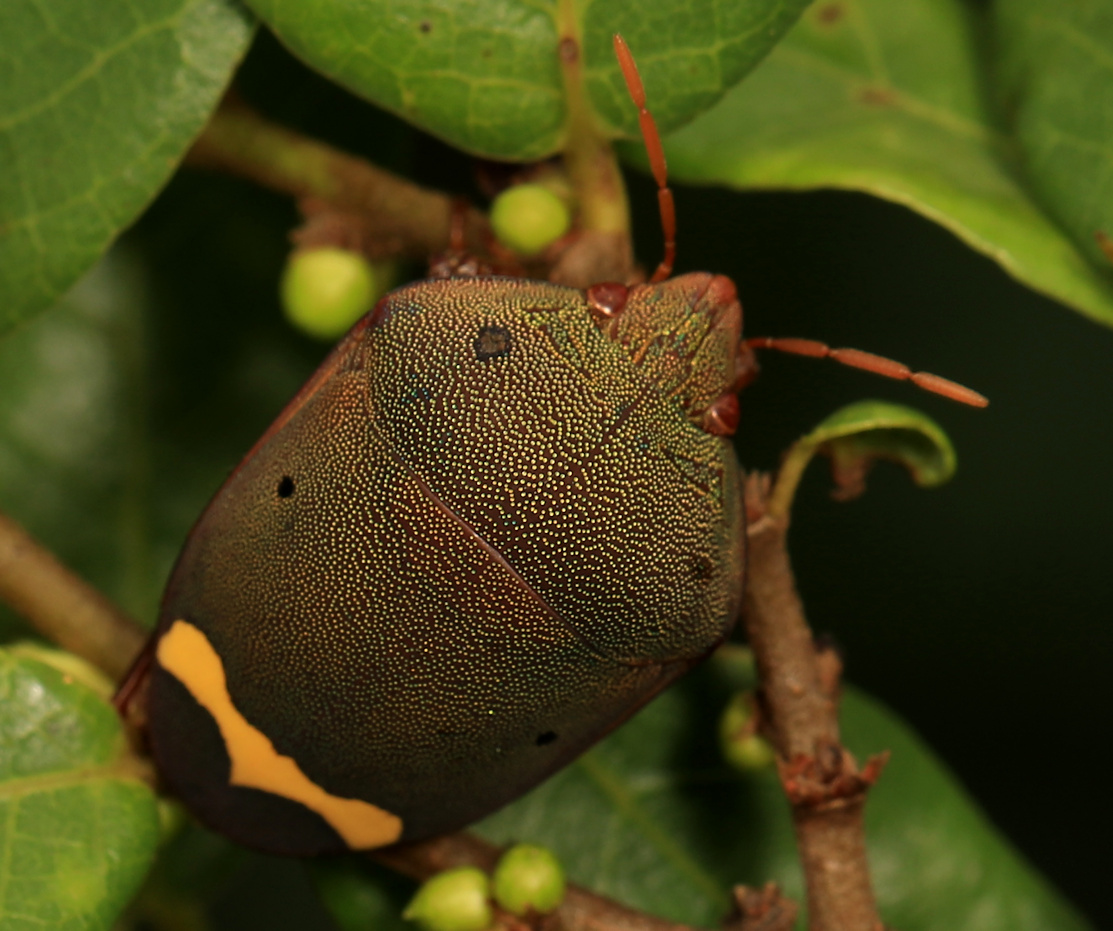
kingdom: Animalia
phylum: Arthropoda
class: Insecta
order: Hemiptera
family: Scutelleridae
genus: Solenosthedium
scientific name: Solenosthedium
